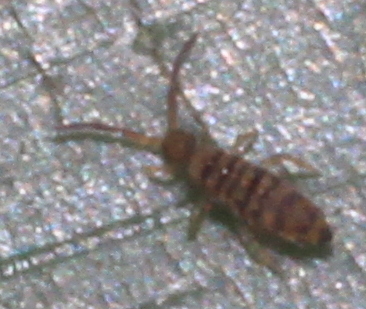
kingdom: Animalia
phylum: Arthropoda
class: Collembola
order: Entomobryomorpha
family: Entomobryidae
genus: Entomobrya
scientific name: Entomobrya multifasciata
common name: Springtail
